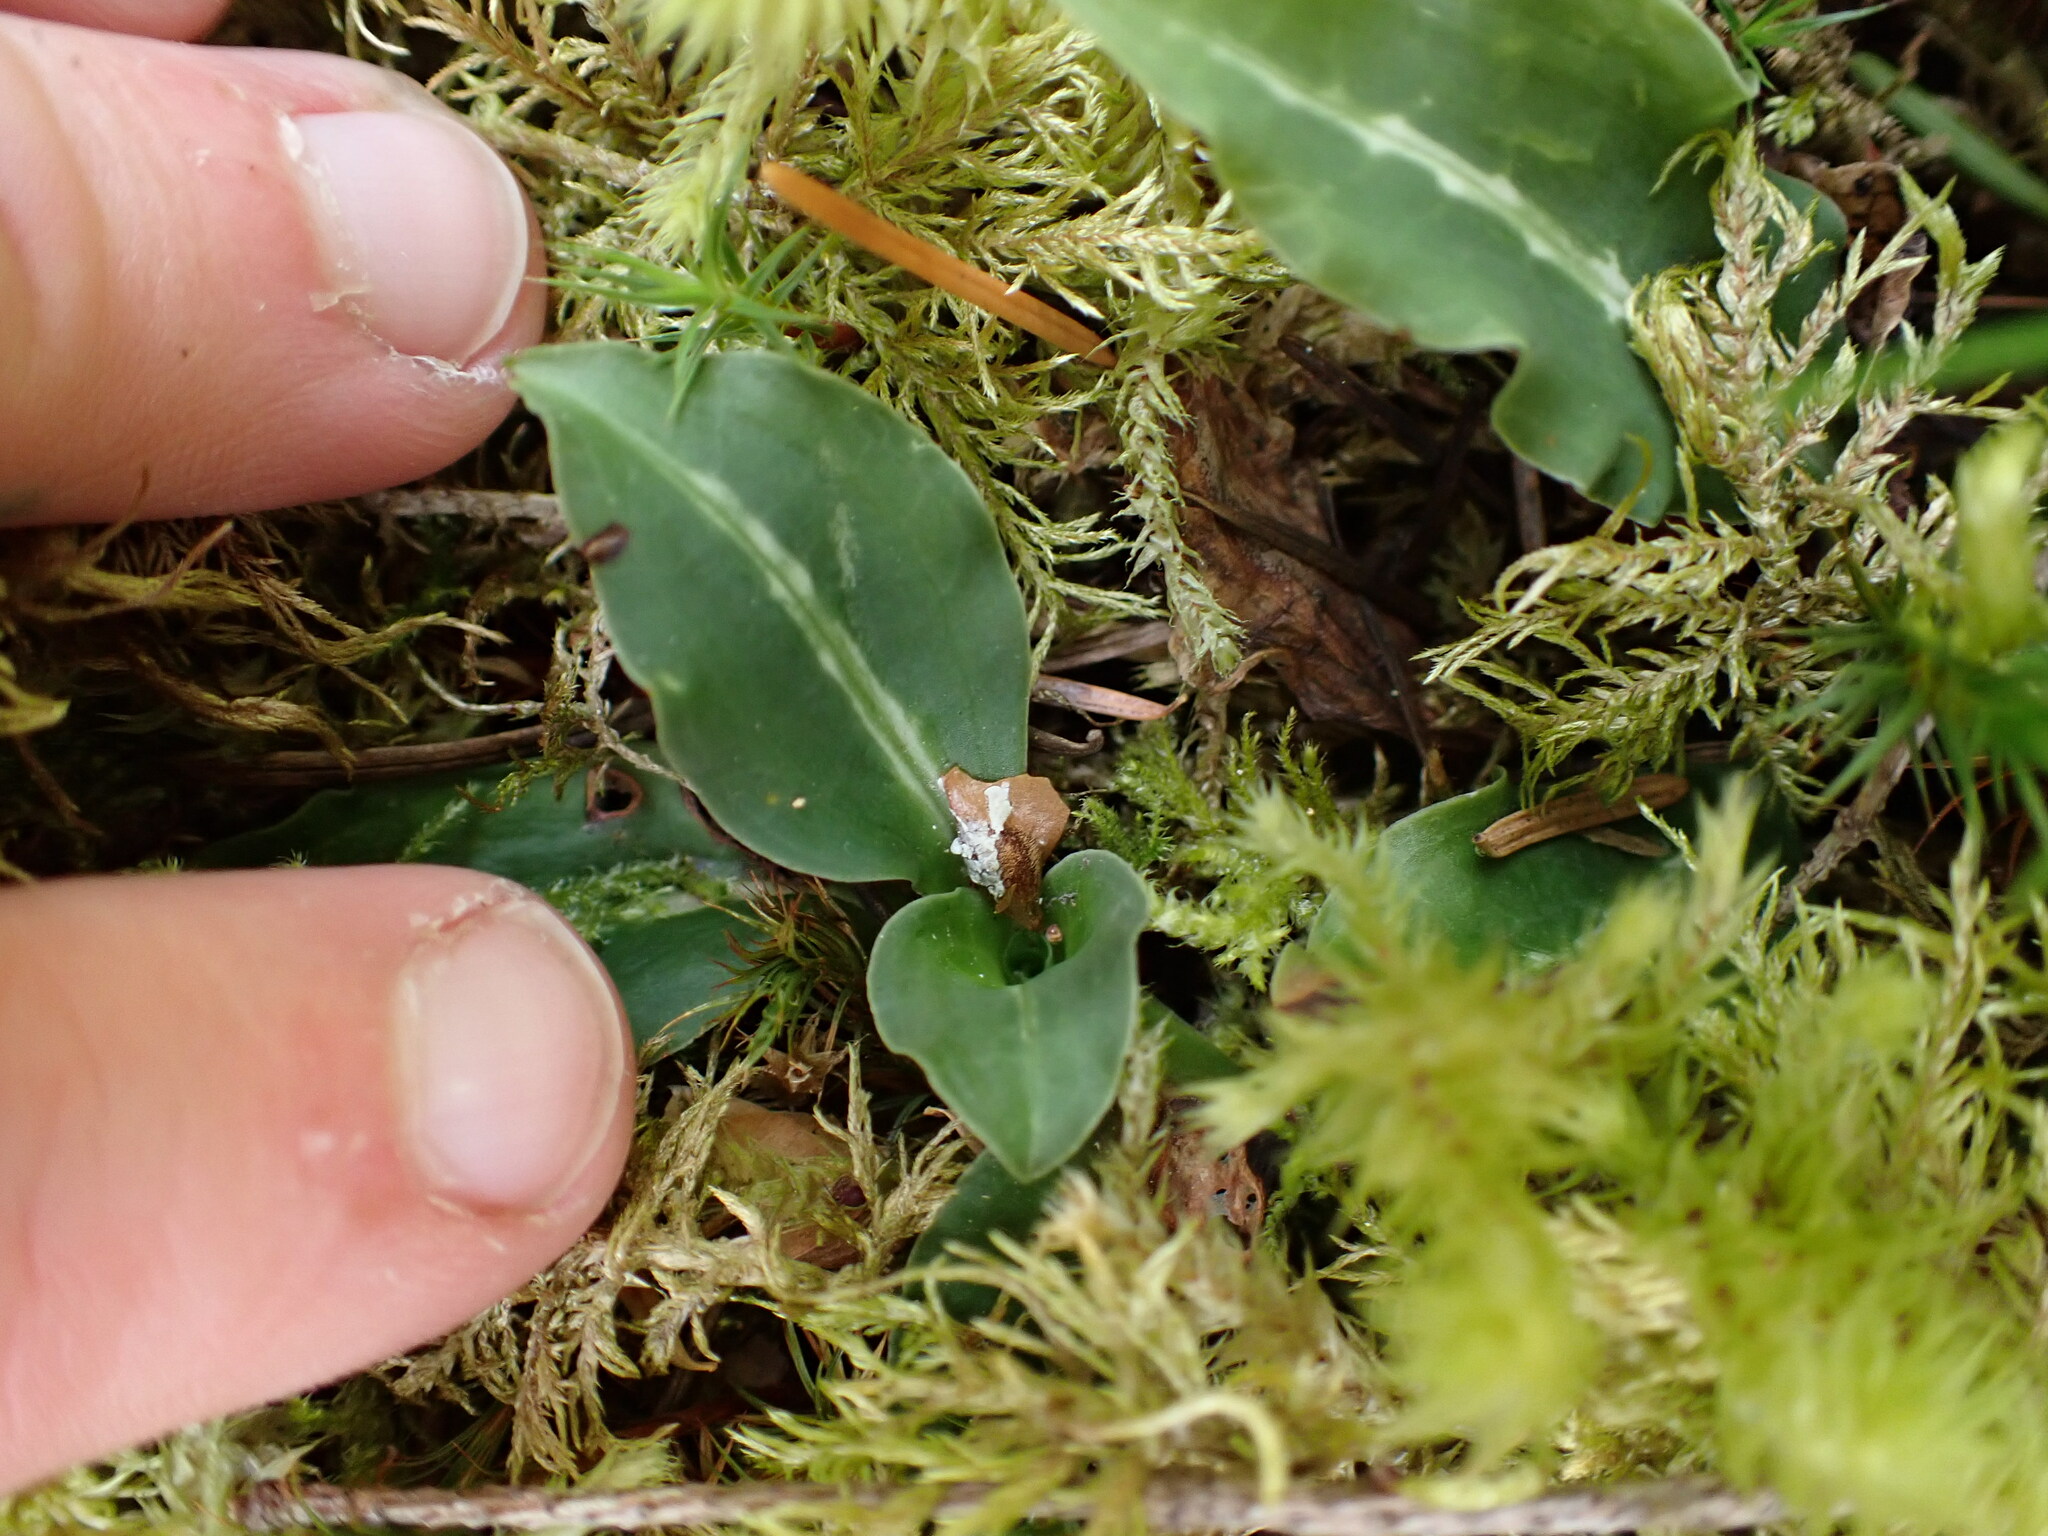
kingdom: Plantae
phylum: Tracheophyta
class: Liliopsida
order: Asparagales
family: Orchidaceae
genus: Goodyera
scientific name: Goodyera oblongifolia
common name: Giant rattlesnake-plantain
